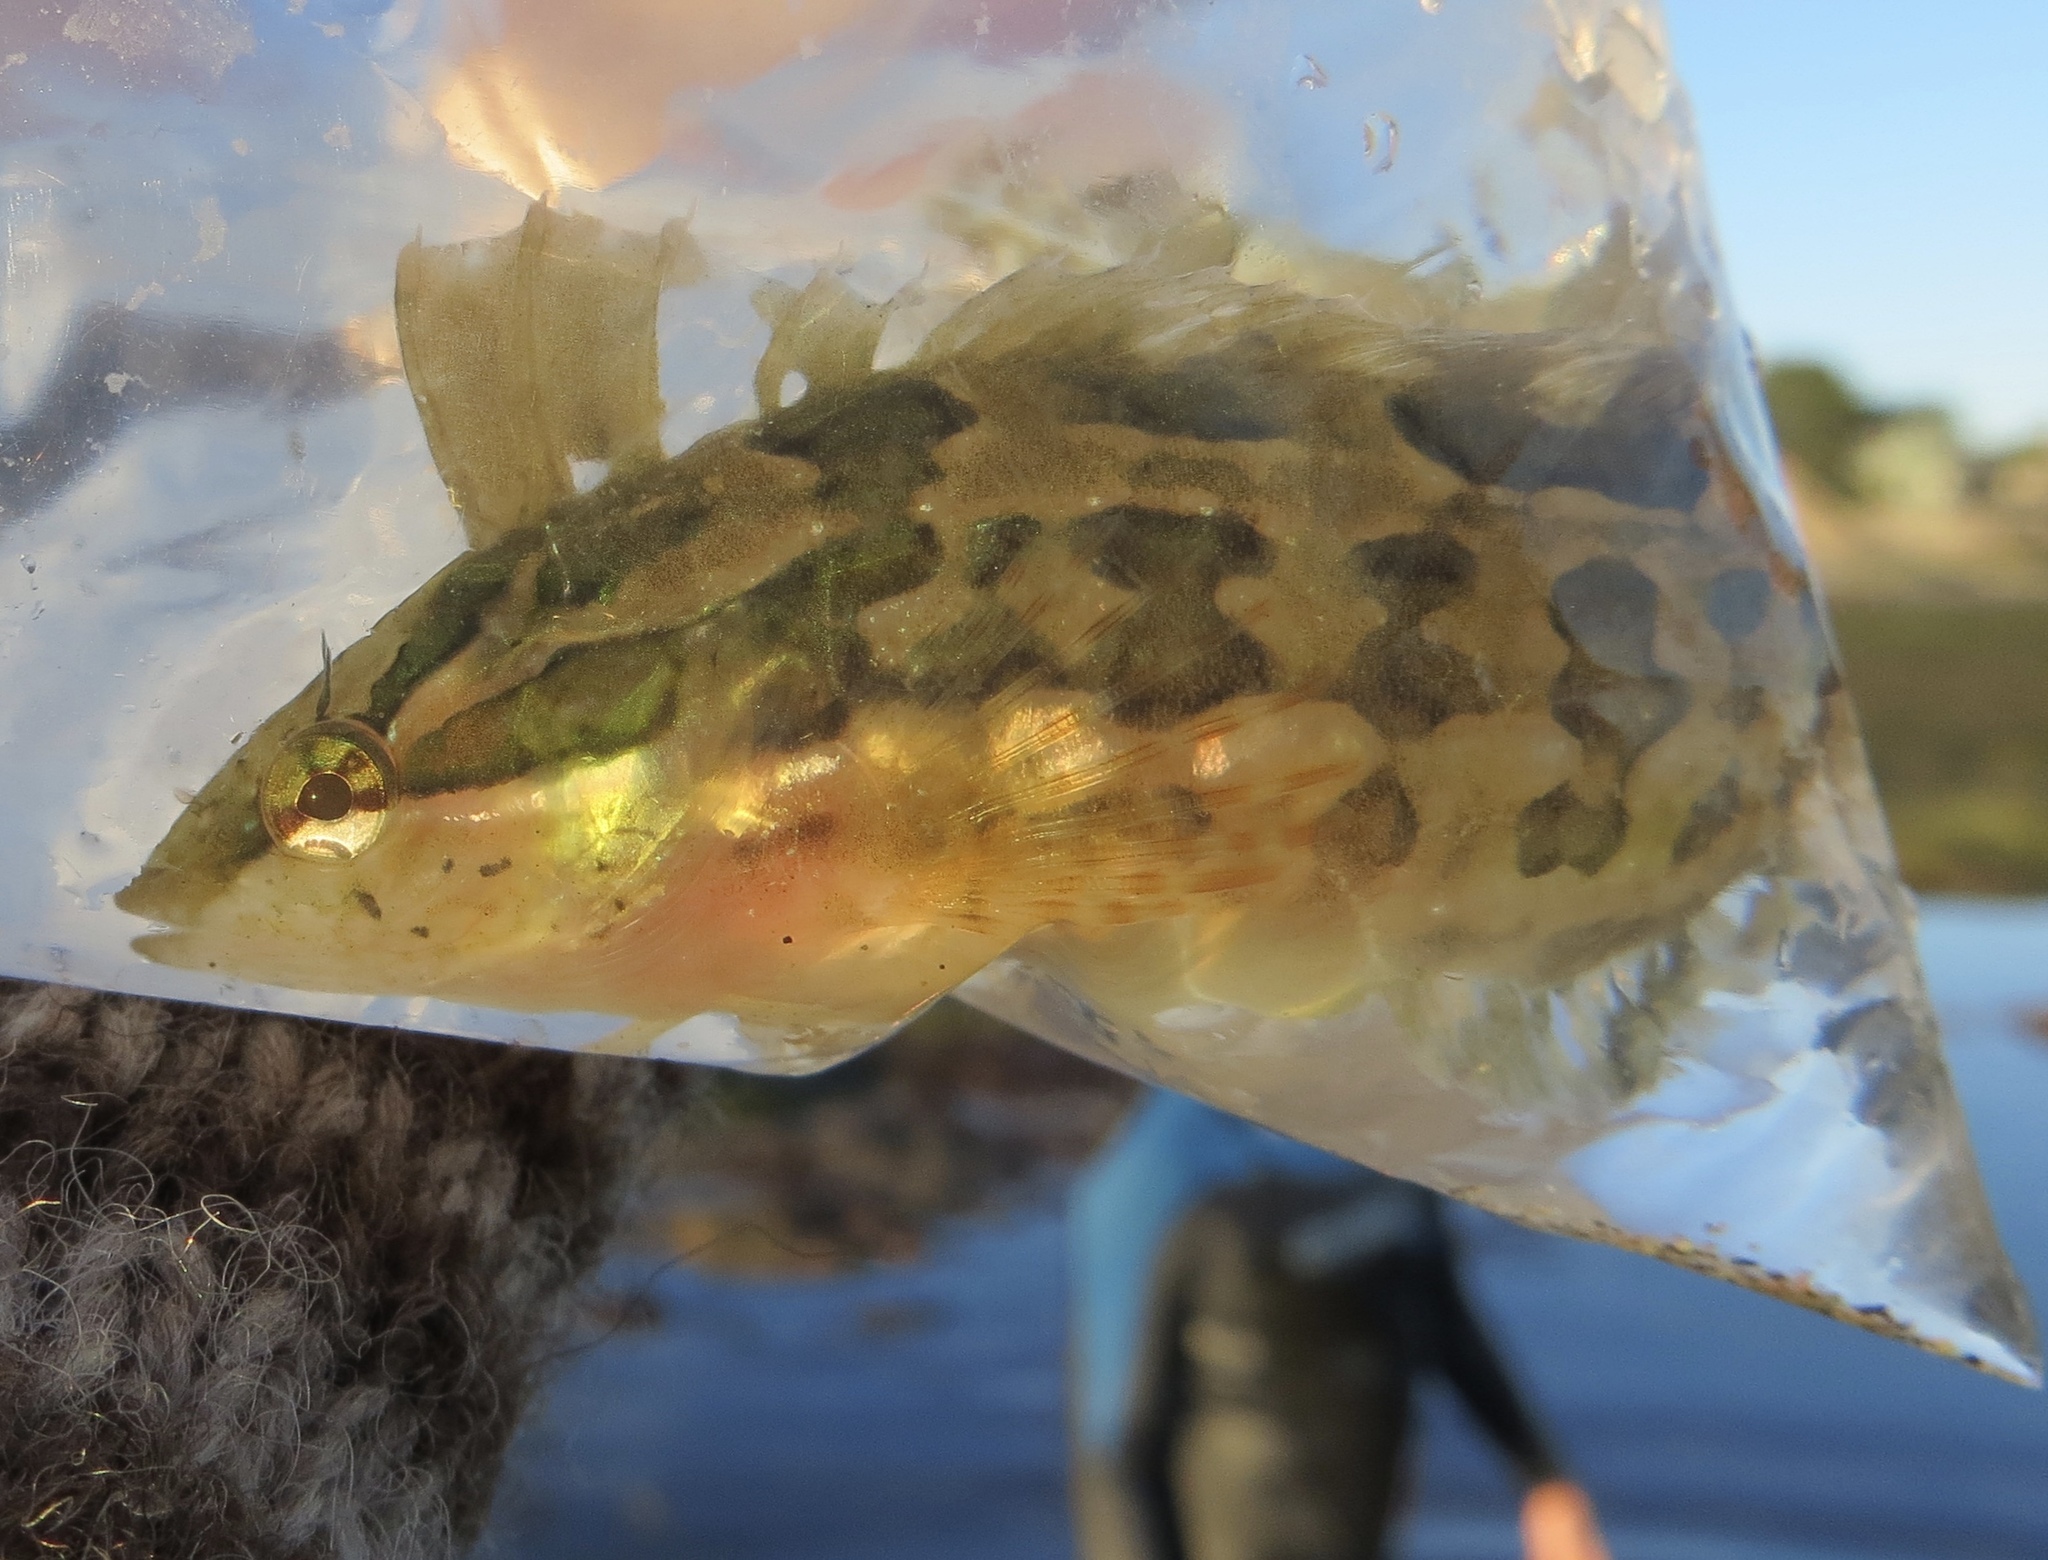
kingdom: Animalia
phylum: Chordata
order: Perciformes
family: Clinidae
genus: Gibbonsia
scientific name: Gibbonsia metzi
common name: Striped kelpfish
